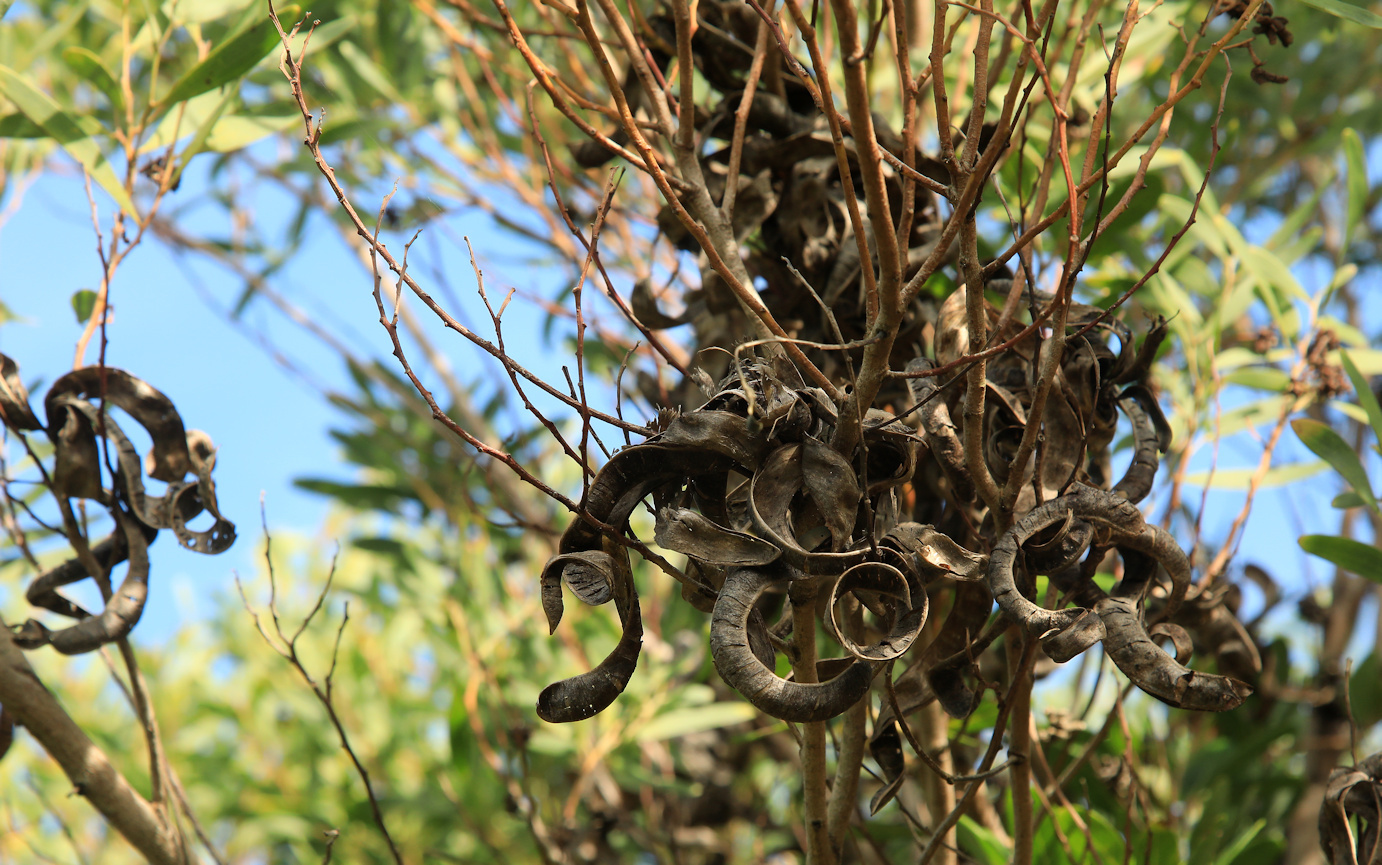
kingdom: Plantae
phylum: Tracheophyta
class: Magnoliopsida
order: Fabales
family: Fabaceae
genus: Acacia
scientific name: Acacia cyclops
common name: Coastal wattle
